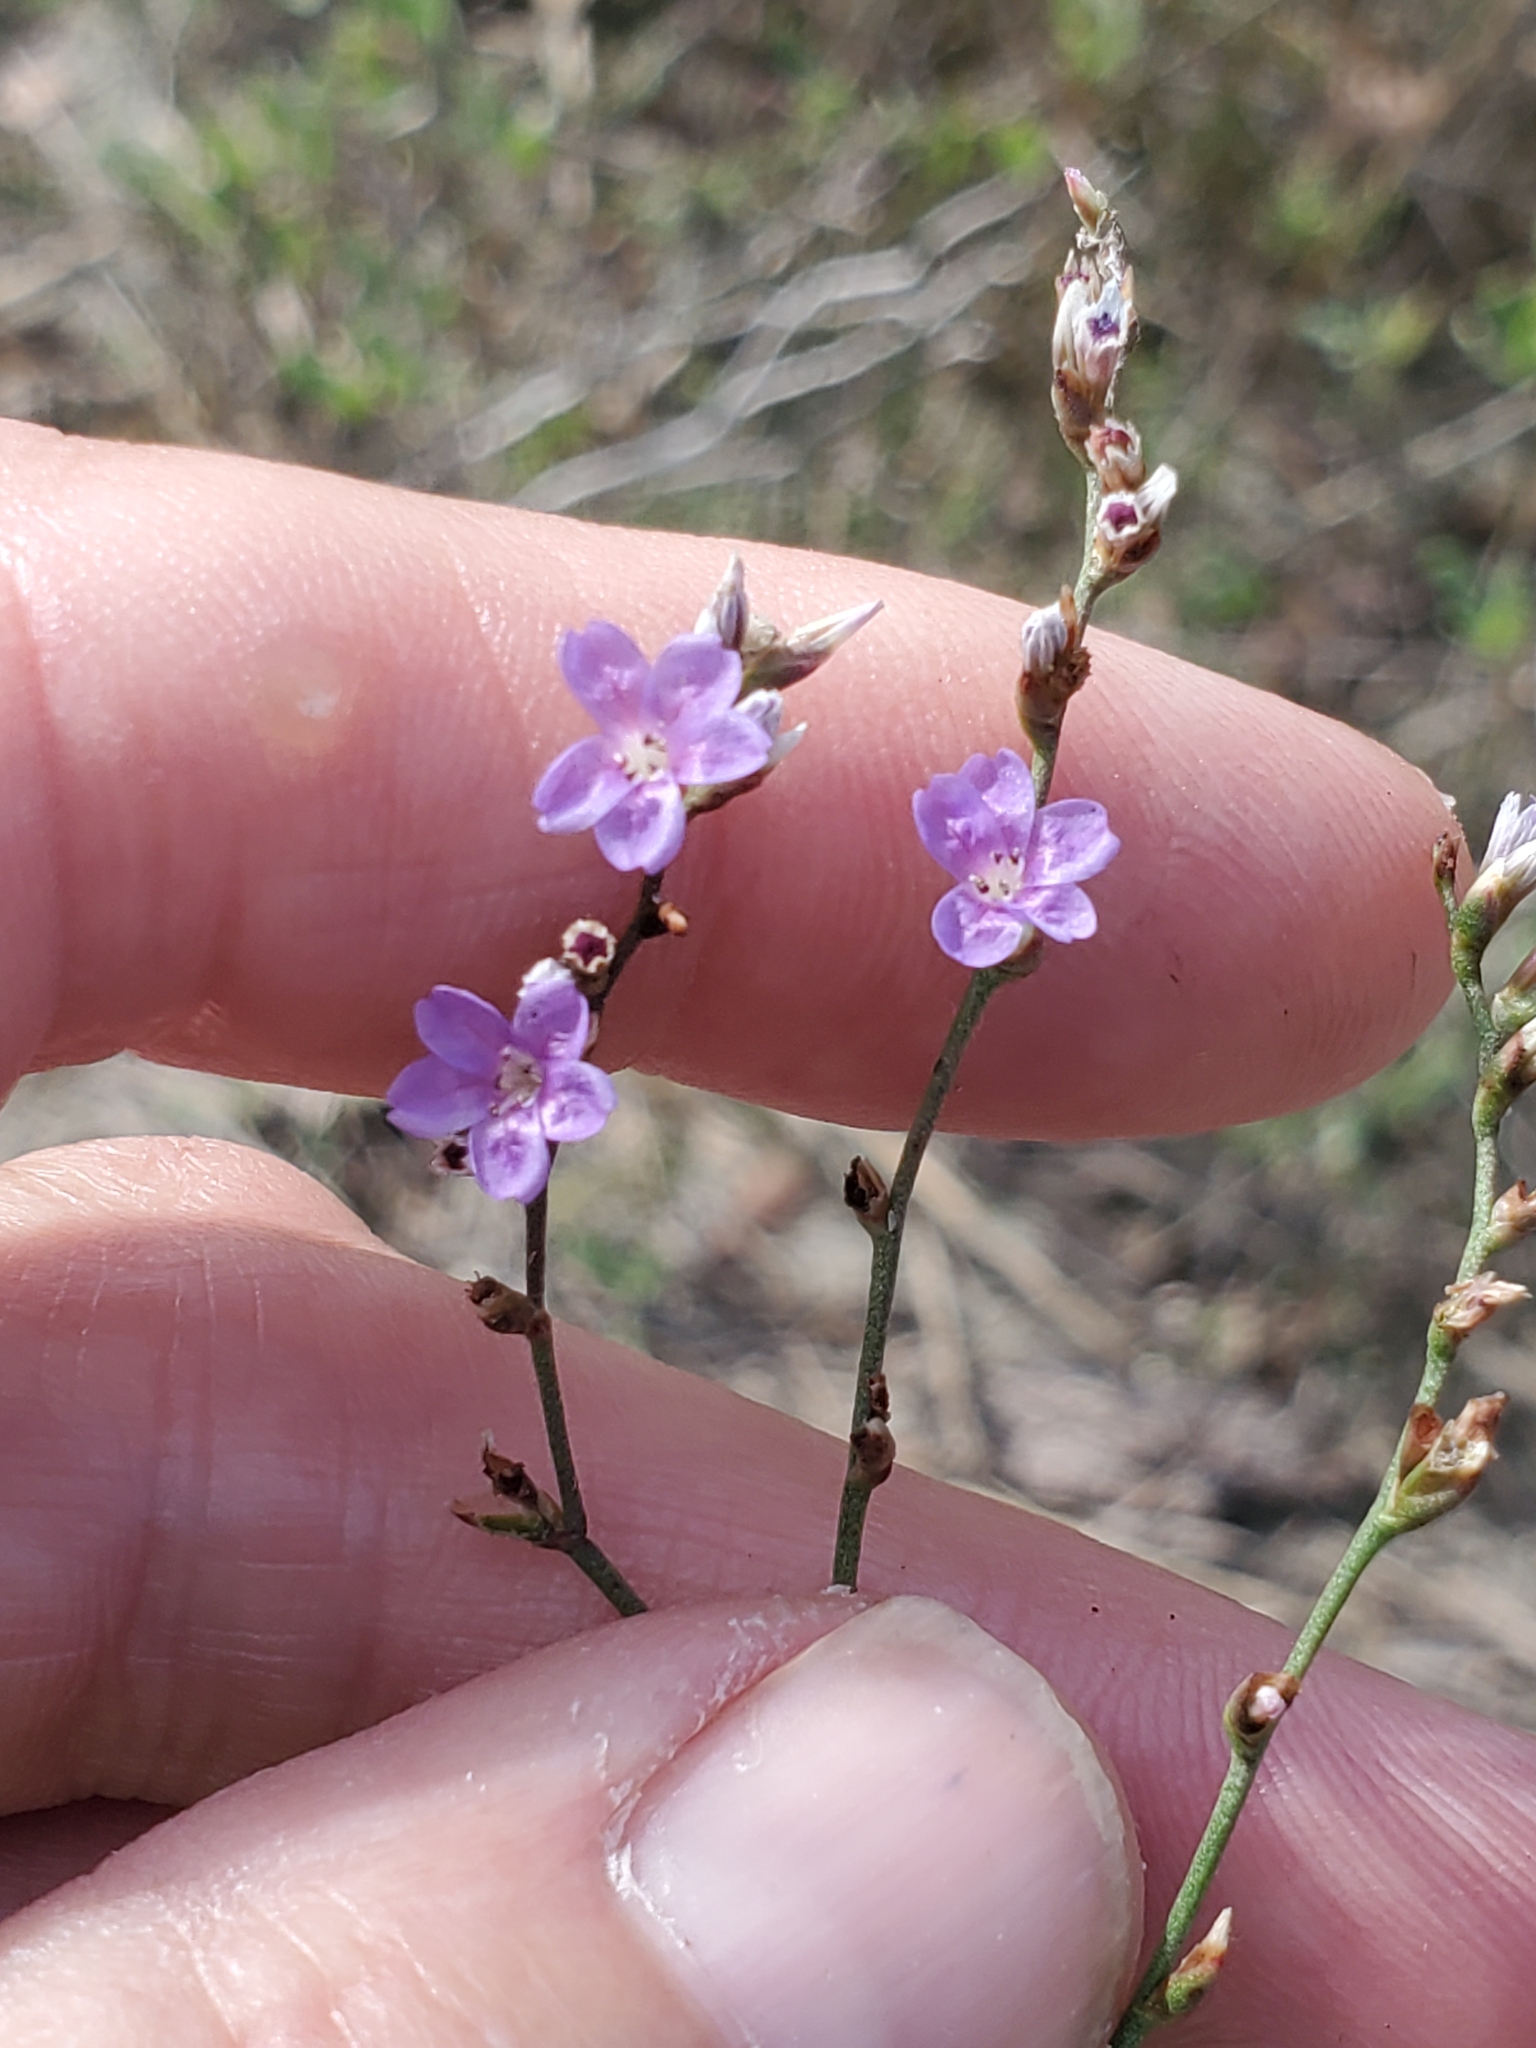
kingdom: Plantae
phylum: Tracheophyta
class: Magnoliopsida
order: Caryophyllales
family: Plumbaginaceae
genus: Limonium
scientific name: Limonium carolinianum
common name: Carolina sea lavender
